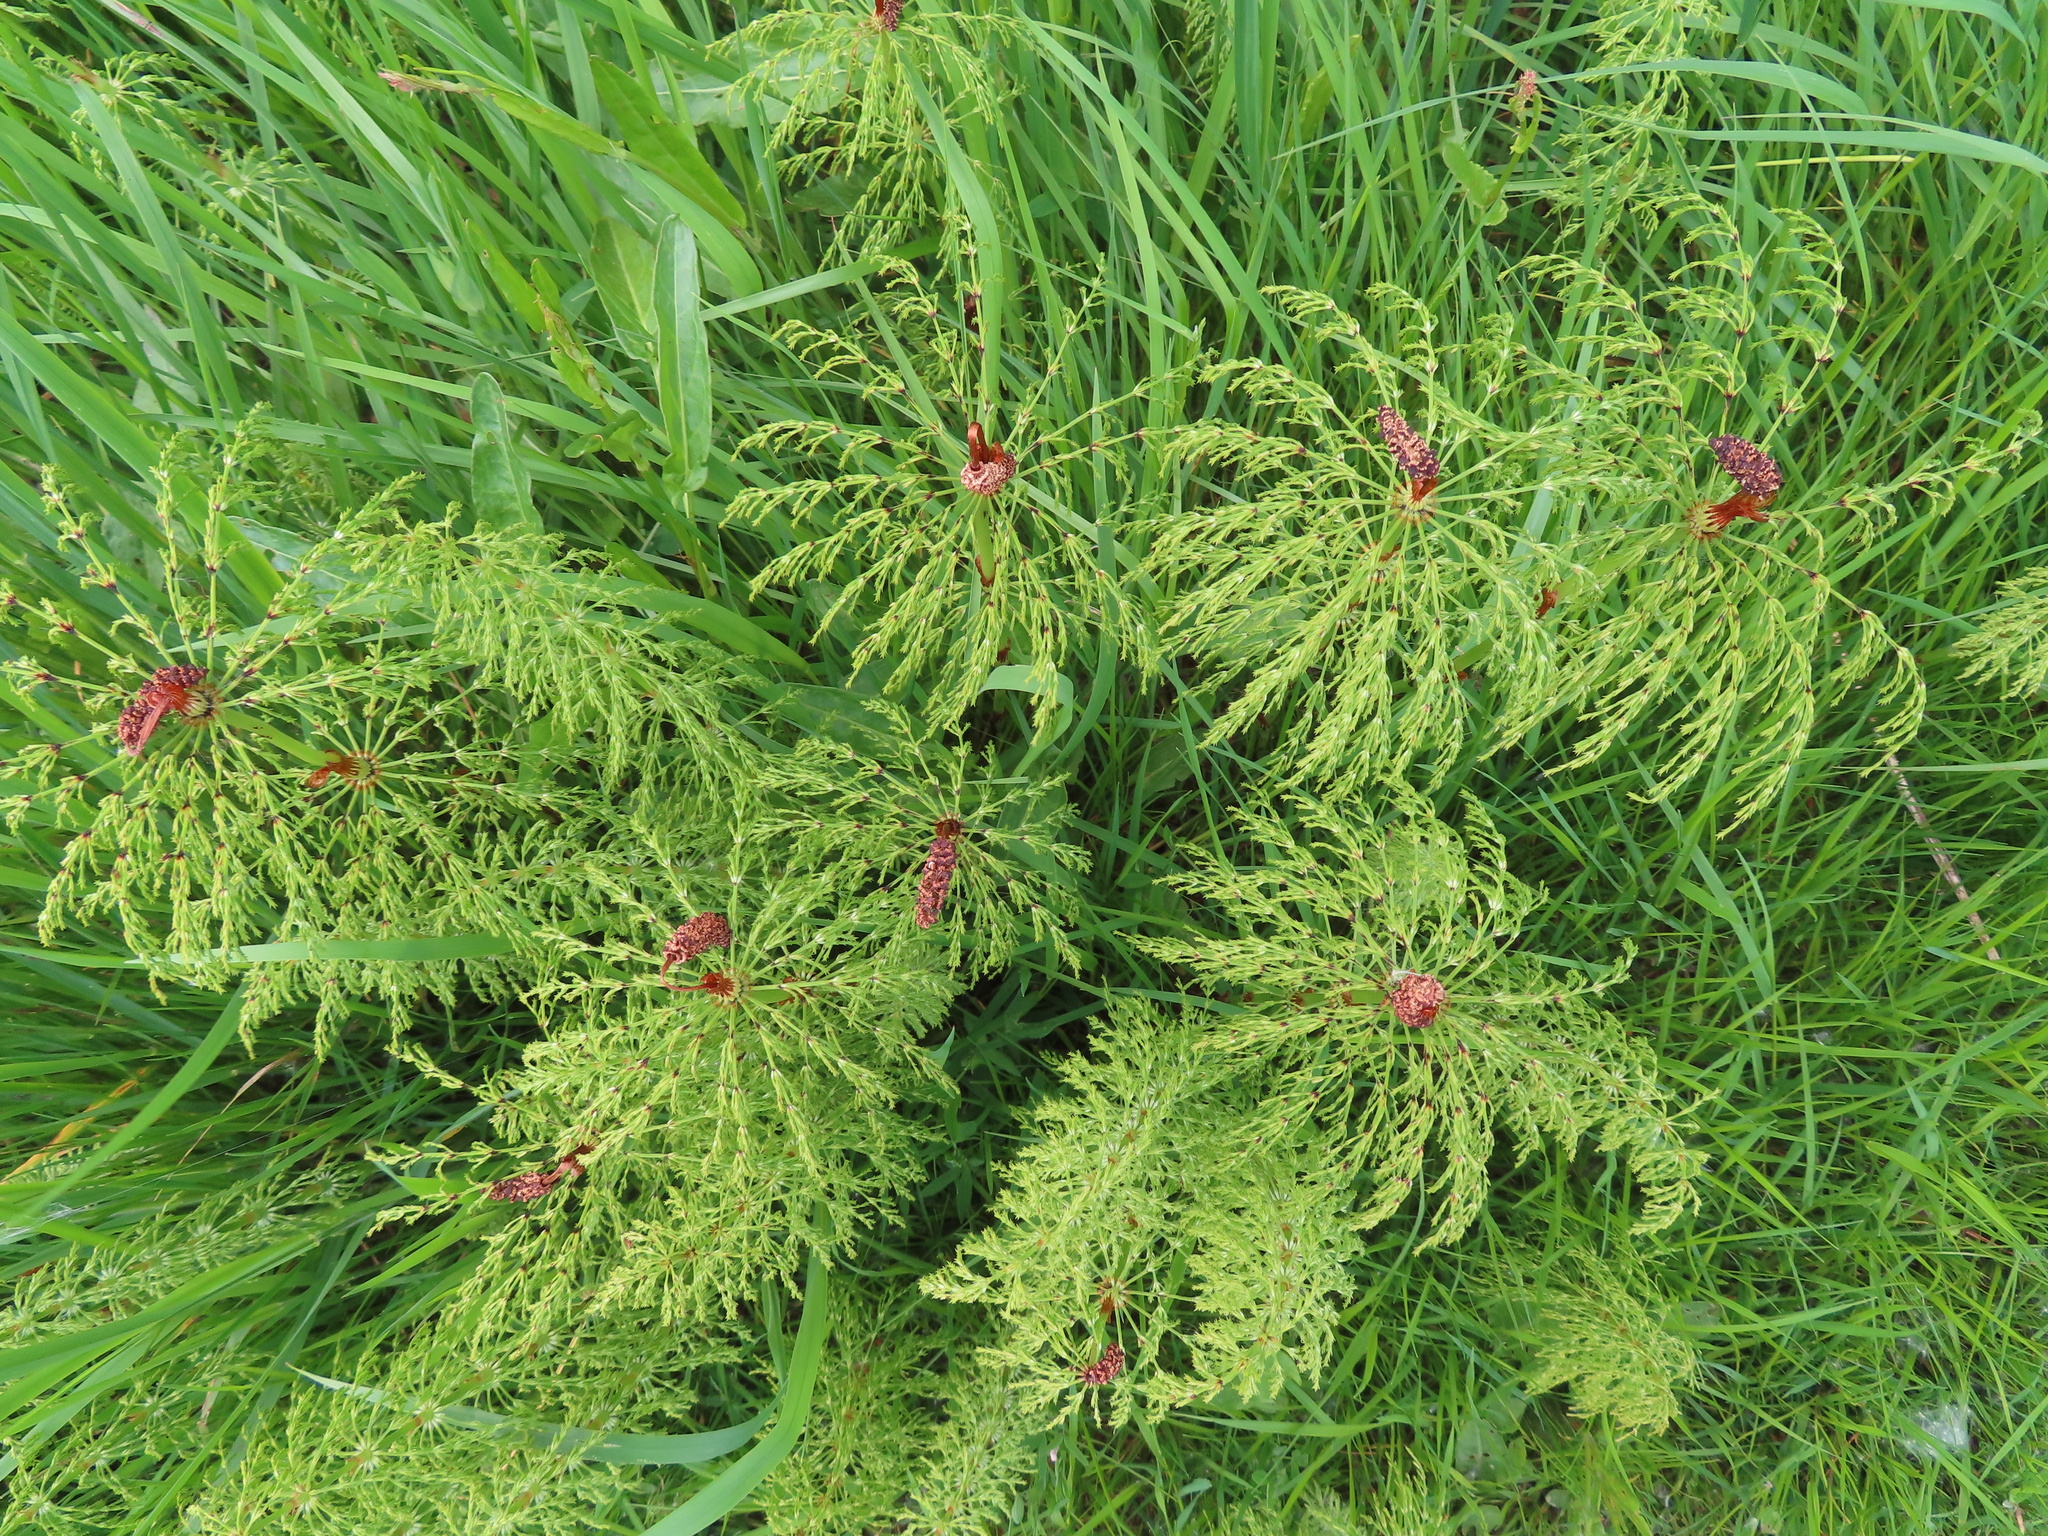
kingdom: Plantae
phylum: Tracheophyta
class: Polypodiopsida
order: Equisetales
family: Equisetaceae
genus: Equisetum
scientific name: Equisetum sylvaticum
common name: Wood horsetail
